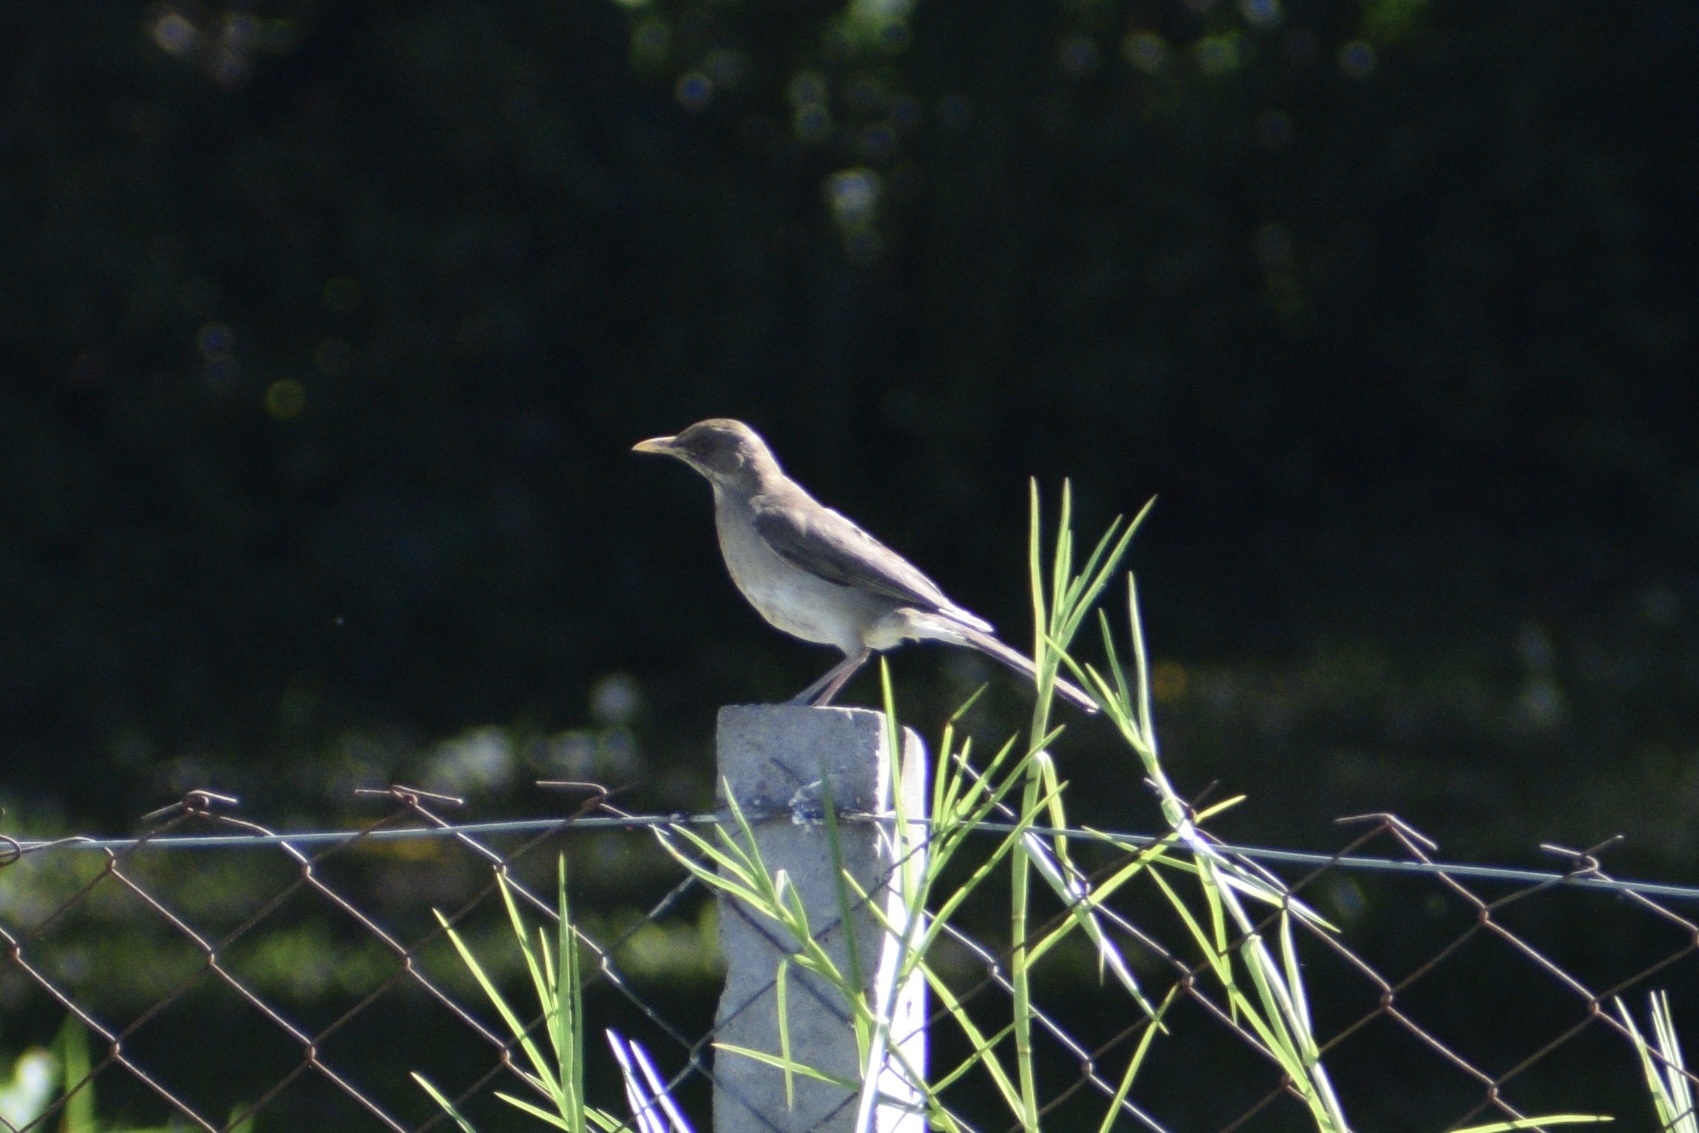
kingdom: Animalia
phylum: Chordata
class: Aves
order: Passeriformes
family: Turdidae
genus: Turdus
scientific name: Turdus amaurochalinus
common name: Creamy-bellied thrush
